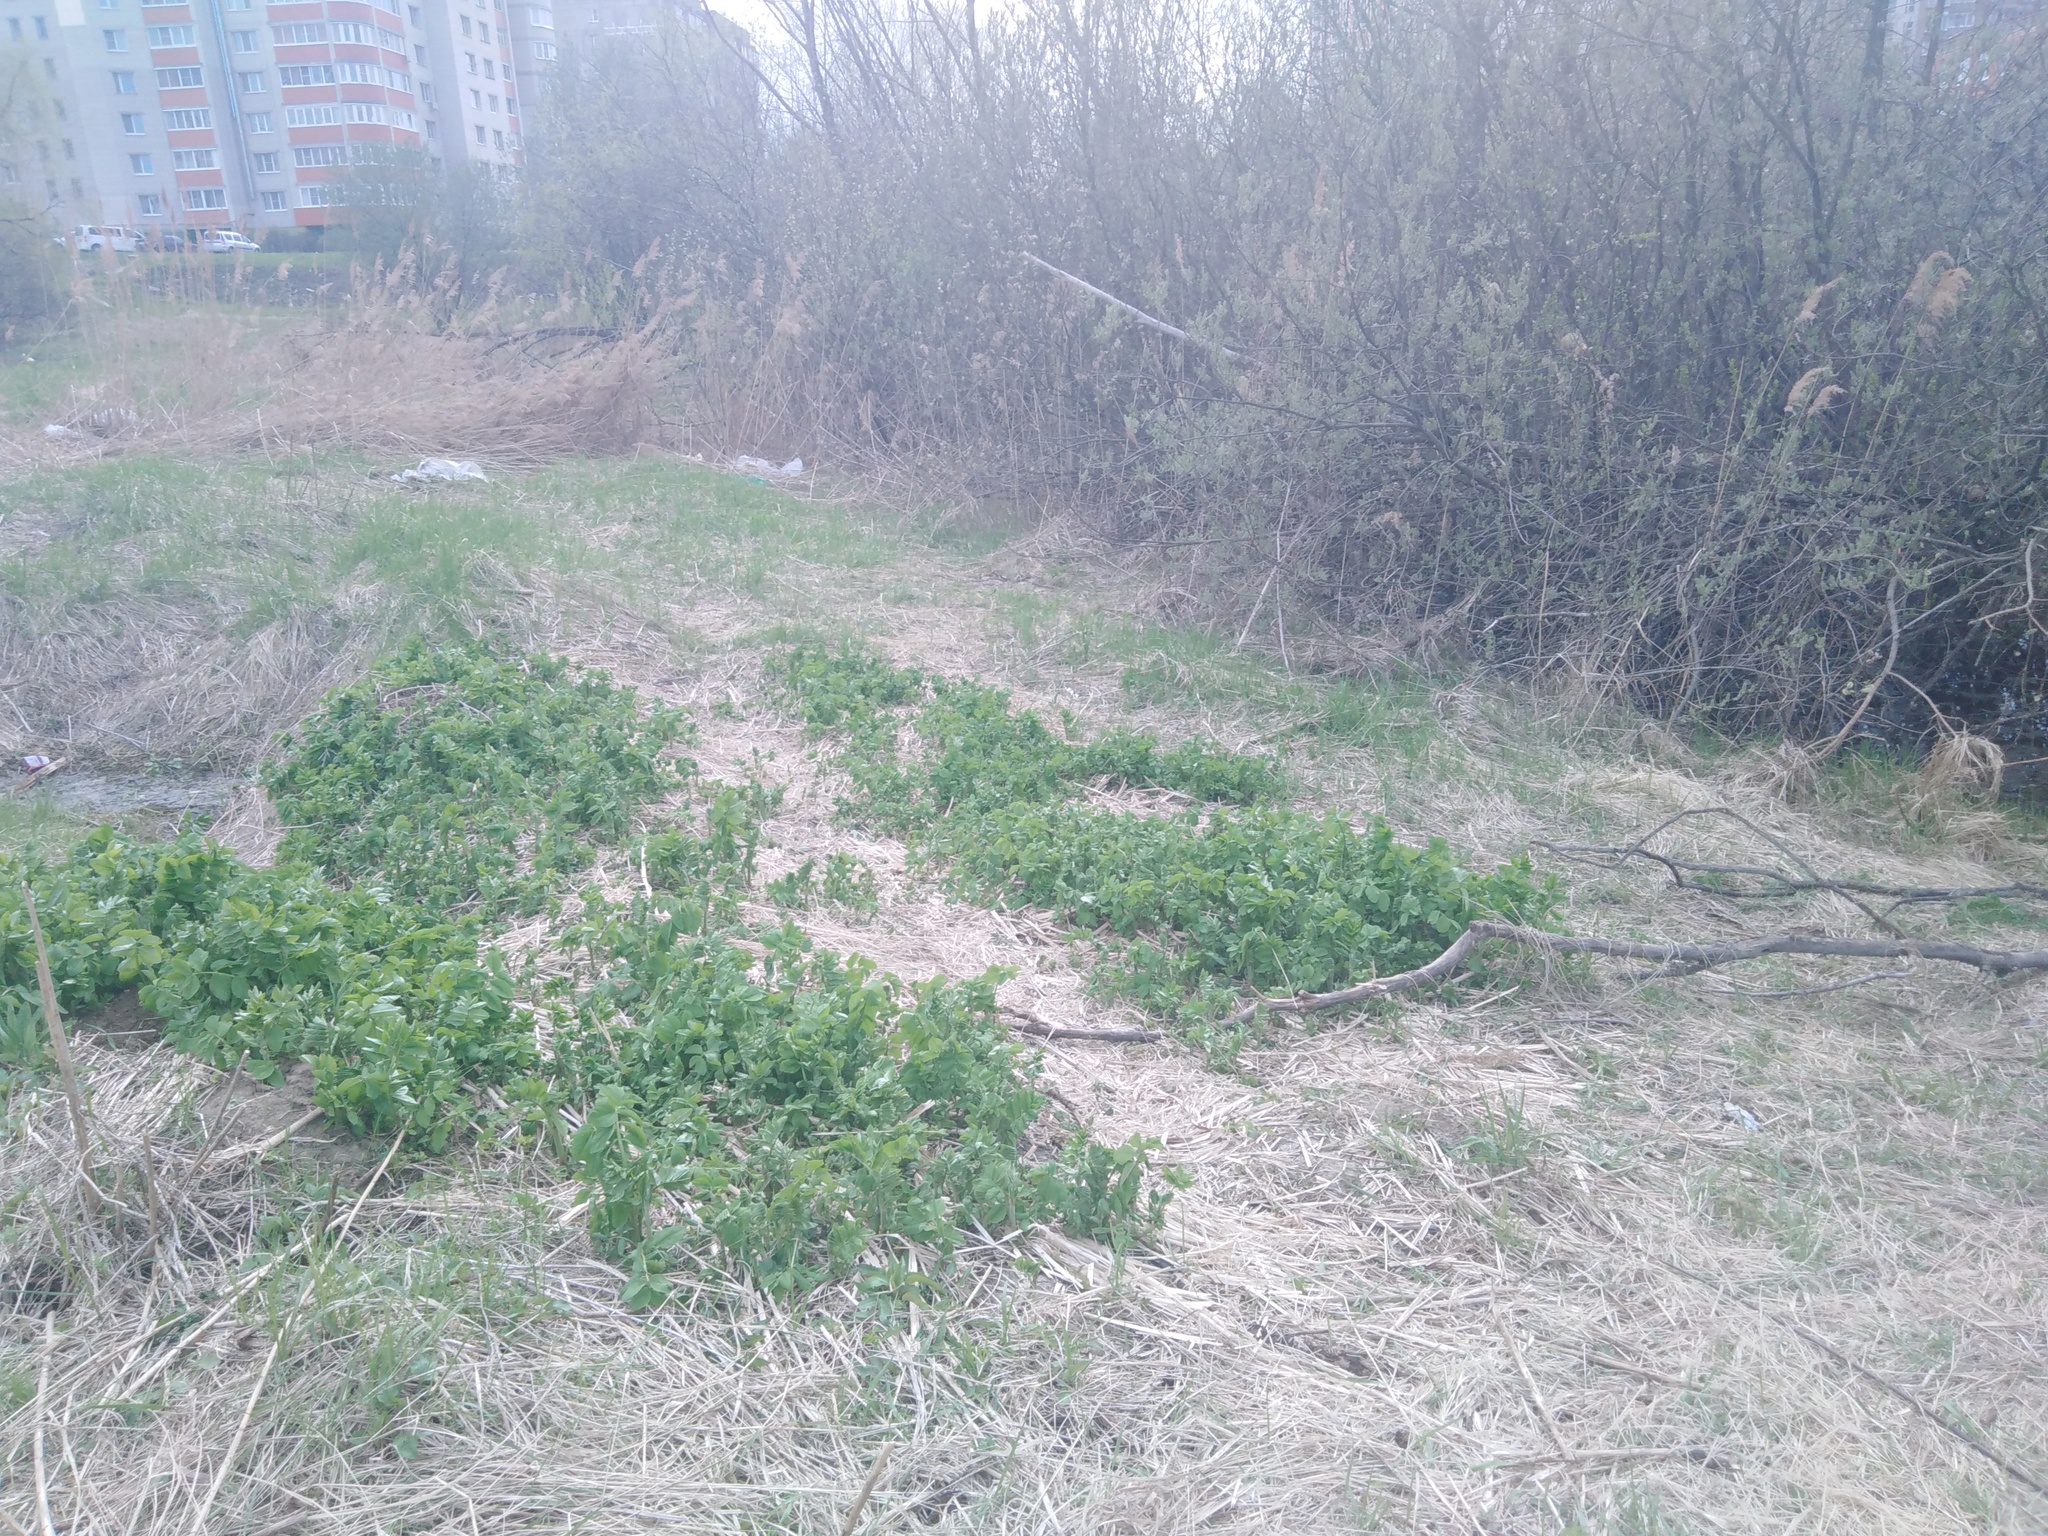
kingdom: Plantae
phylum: Tracheophyta
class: Magnoliopsida
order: Fabales
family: Fabaceae
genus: Galega
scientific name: Galega orientalis
